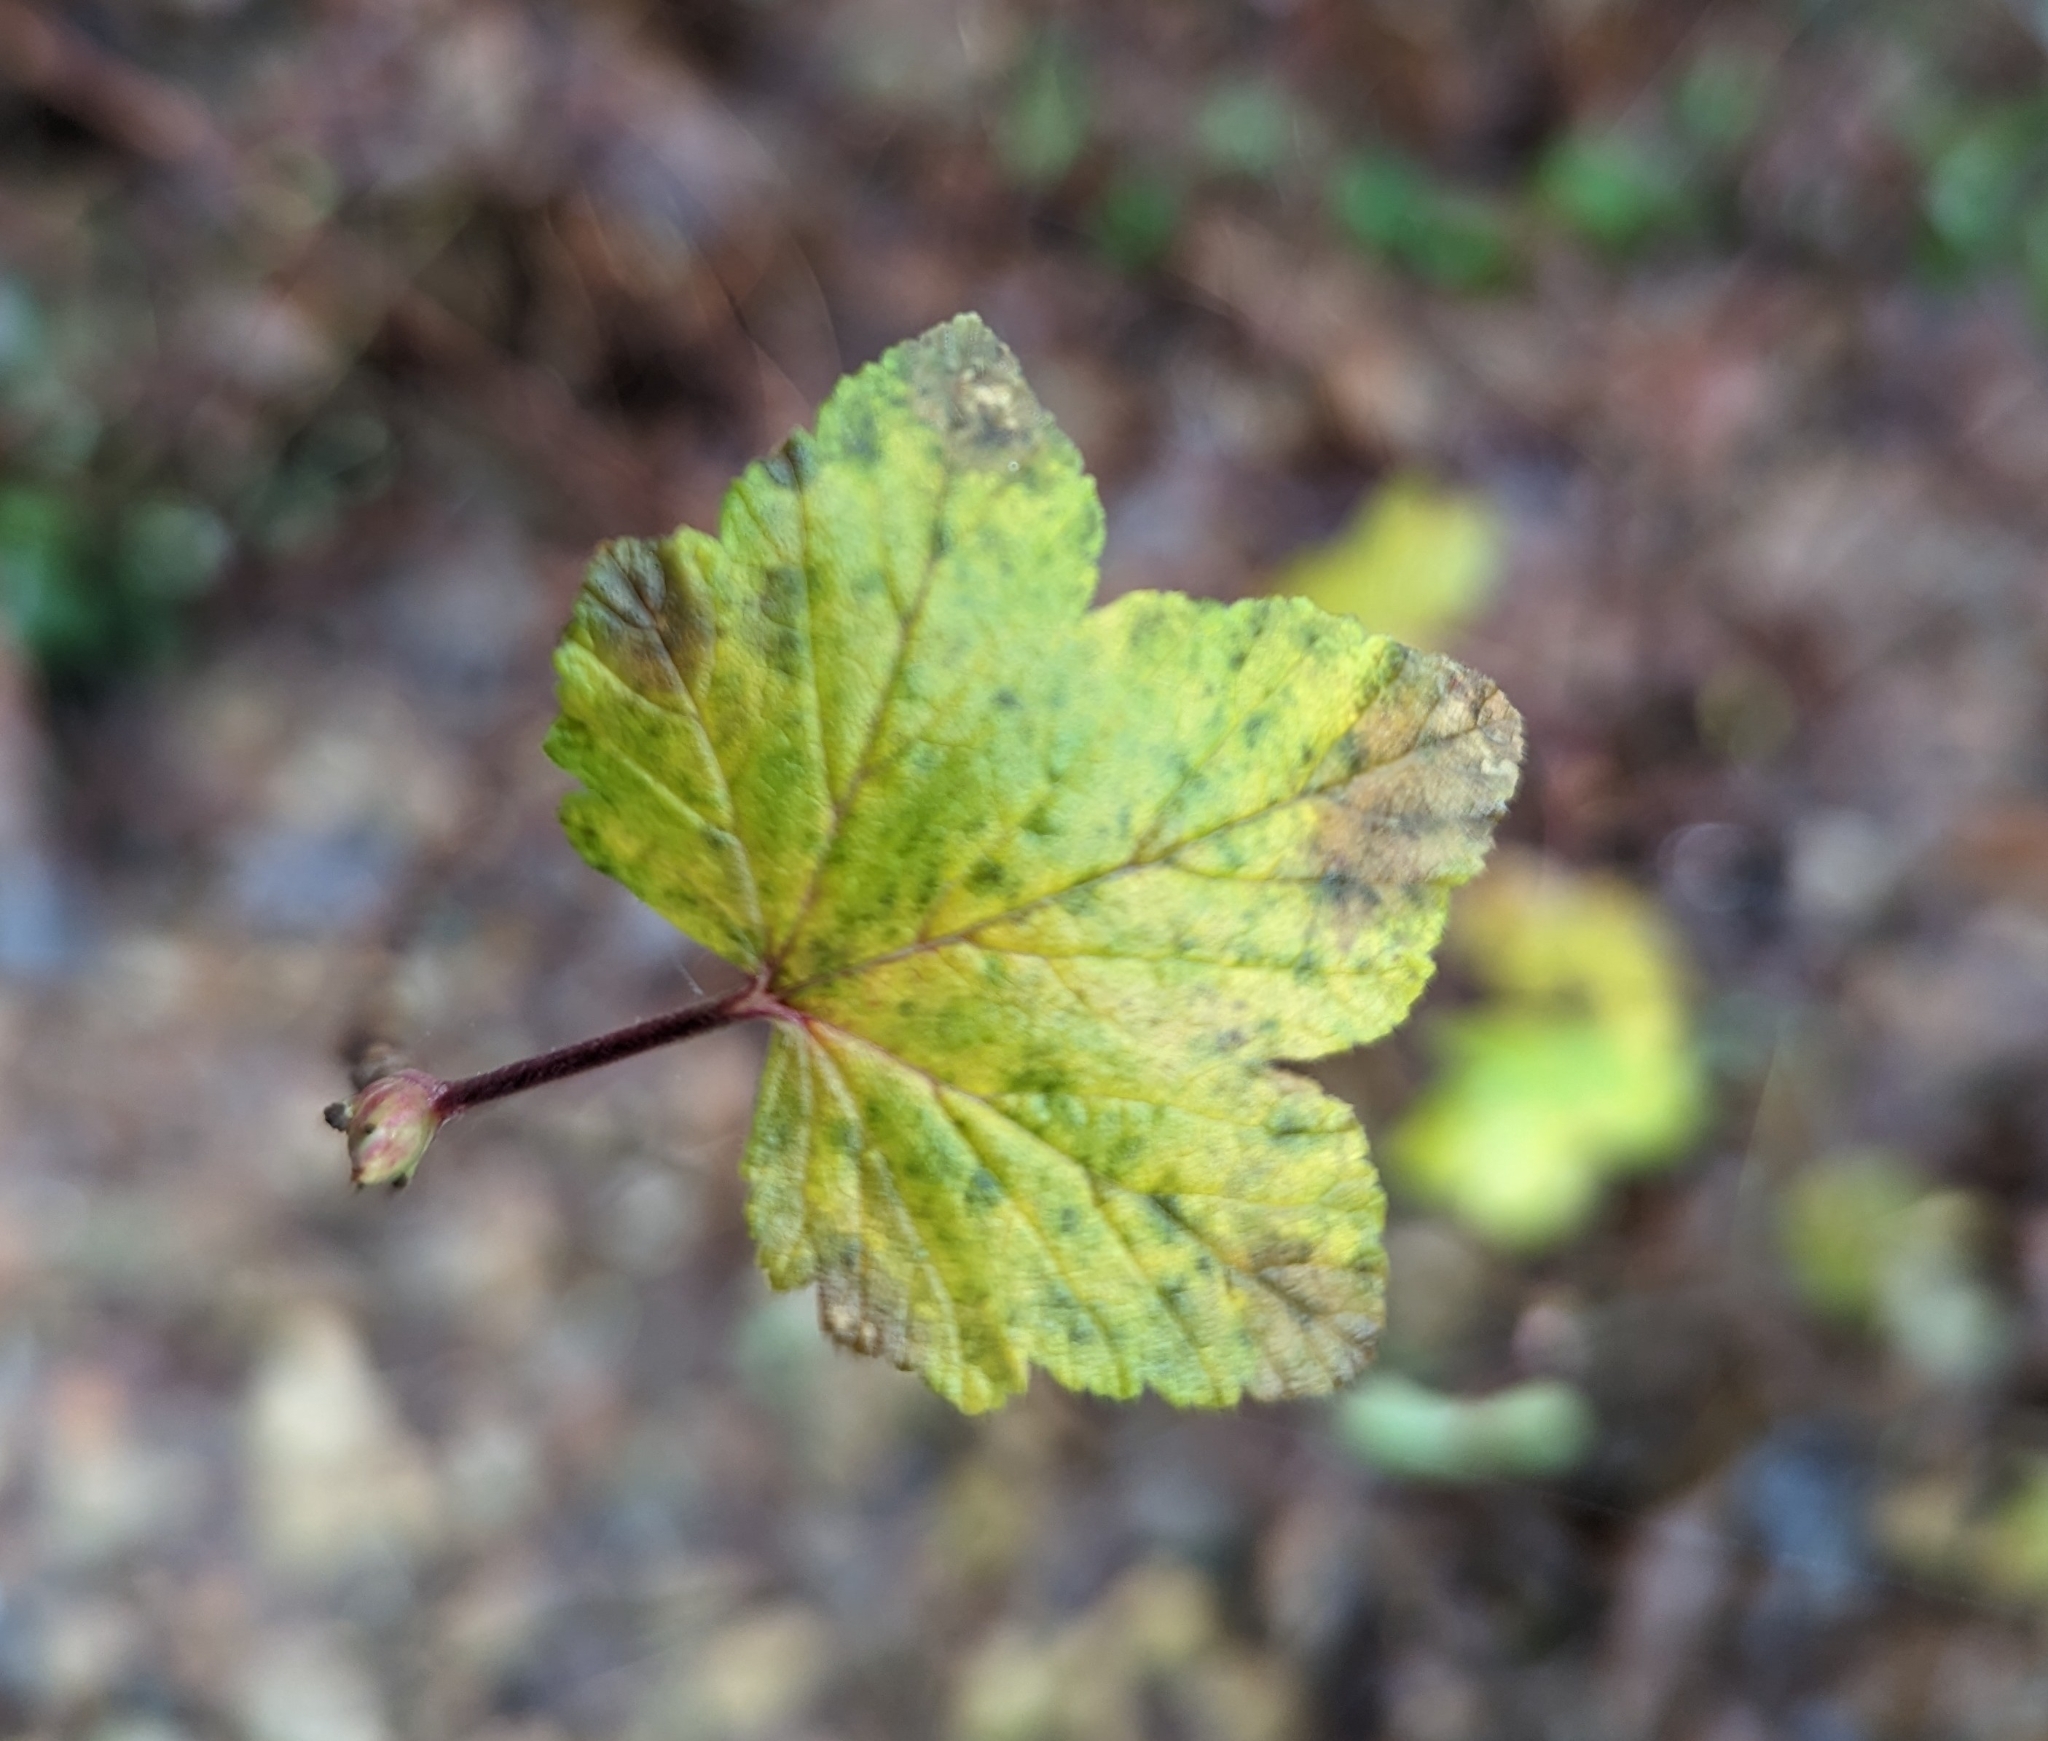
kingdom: Plantae
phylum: Tracheophyta
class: Magnoliopsida
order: Saxifragales
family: Grossulariaceae
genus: Ribes
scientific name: Ribes sanguineum
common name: Flowering currant
